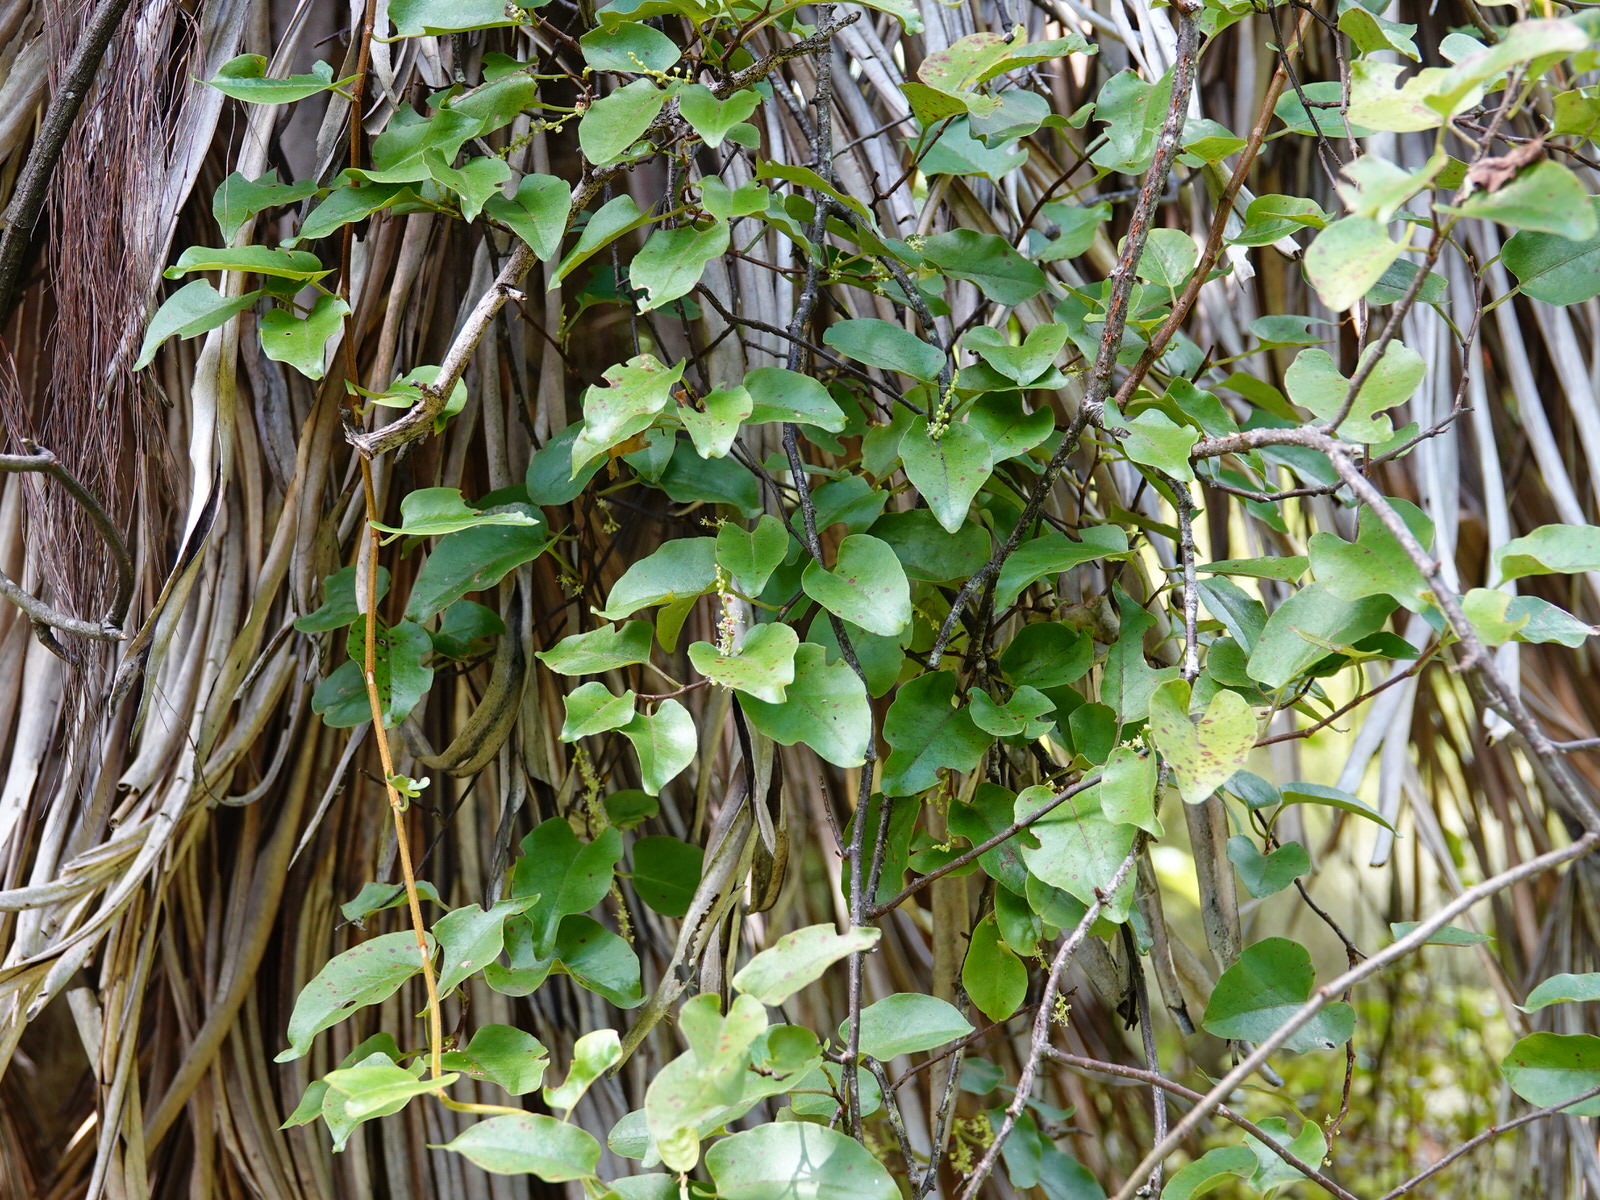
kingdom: Plantae
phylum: Tracheophyta
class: Magnoliopsida
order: Caryophyllales
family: Polygonaceae
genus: Muehlenbeckia
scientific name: Muehlenbeckia australis
